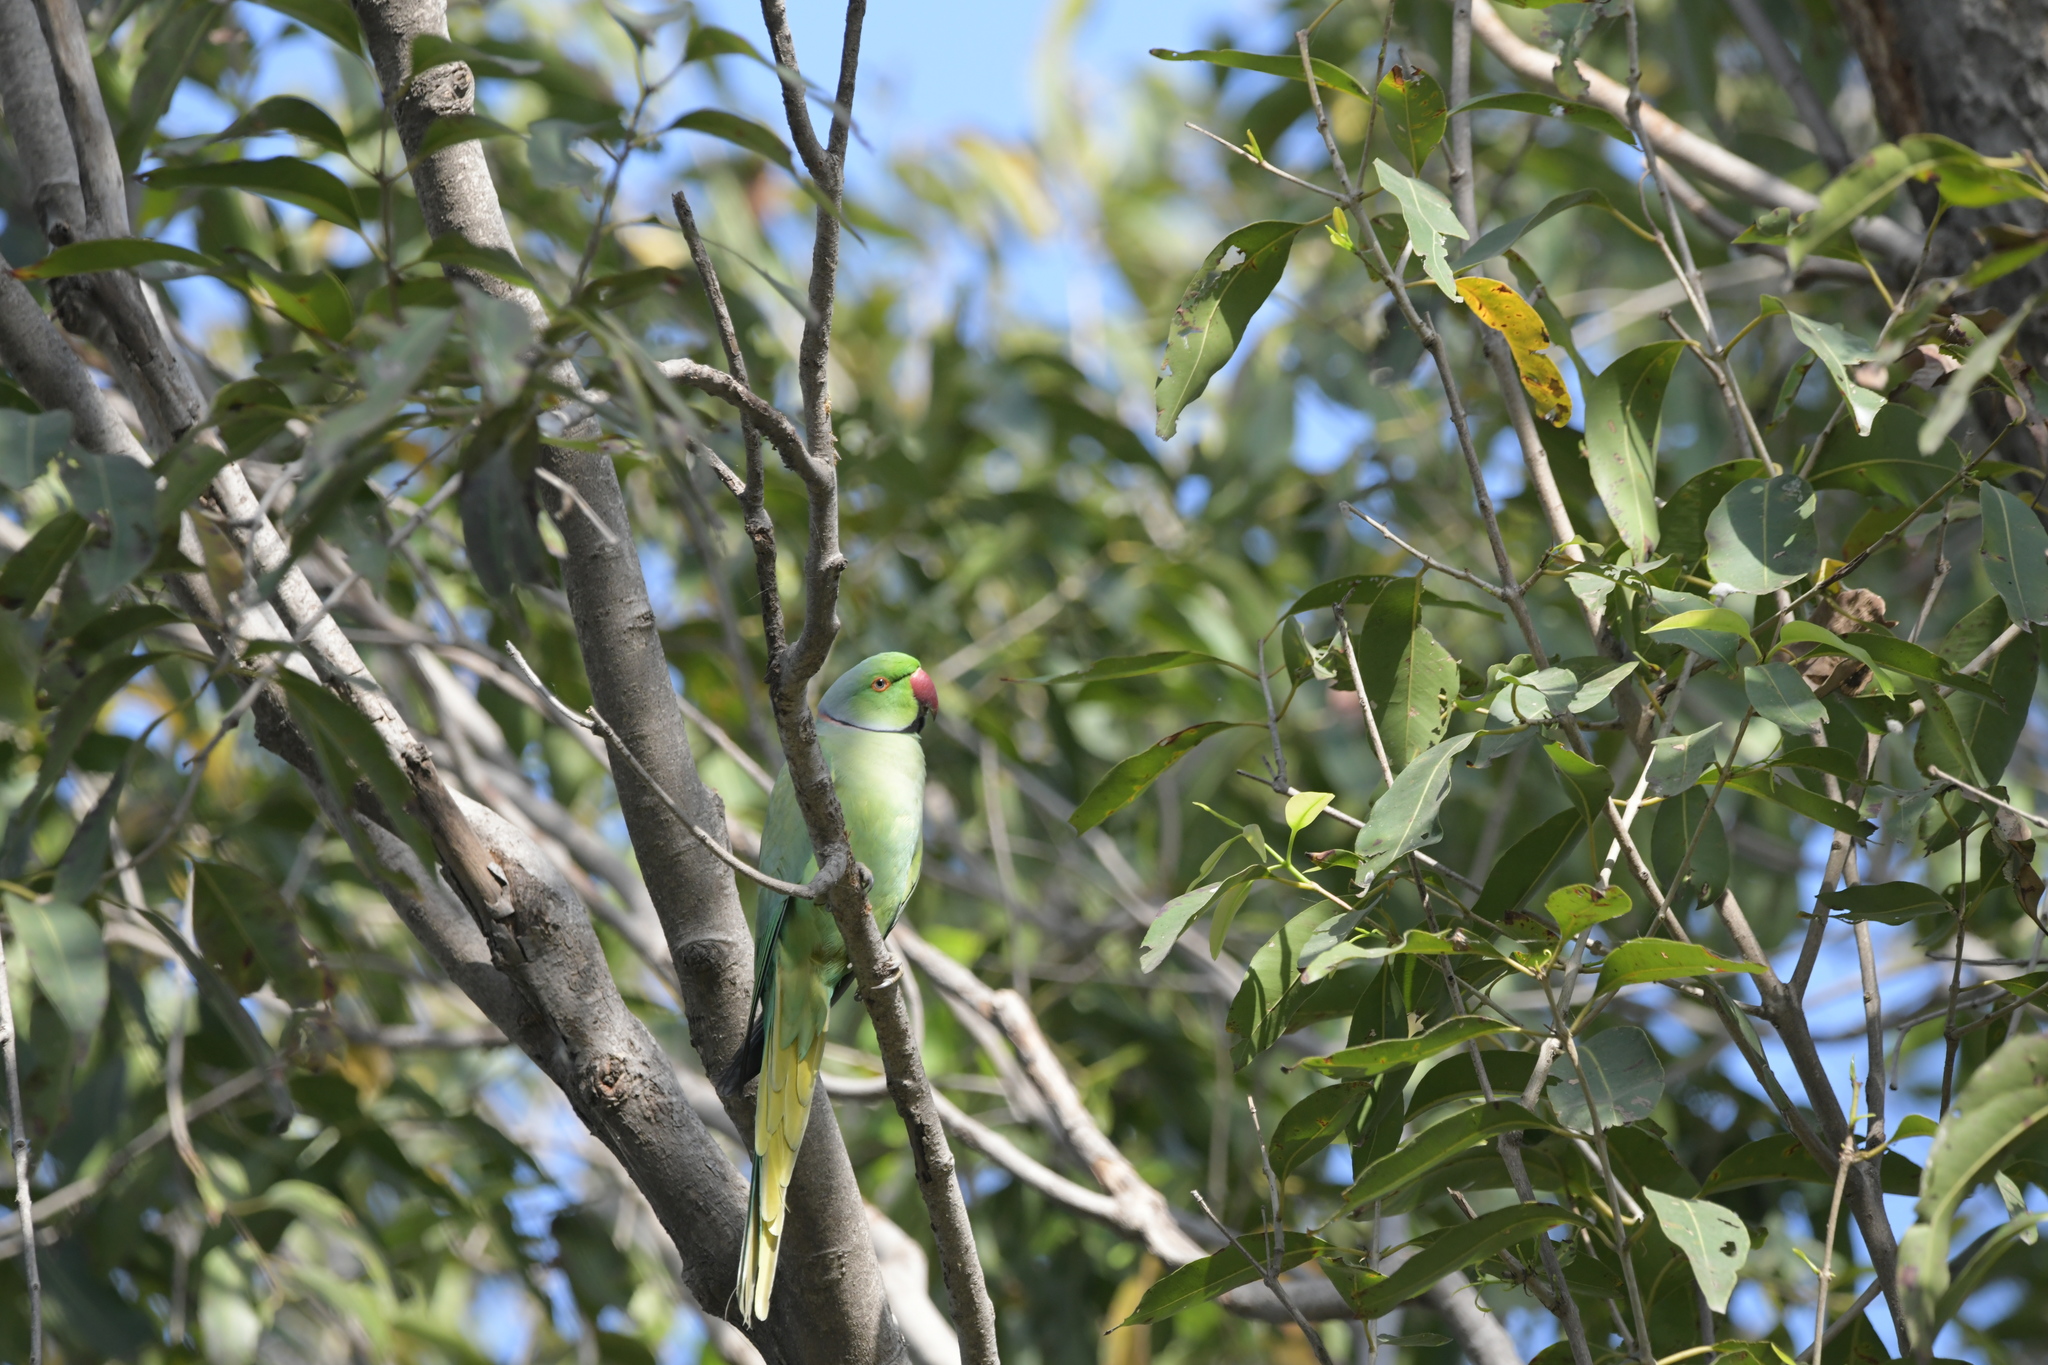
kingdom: Animalia
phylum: Chordata
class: Aves
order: Psittaciformes
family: Psittacidae
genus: Psittacula
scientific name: Psittacula krameri
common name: Rose-ringed parakeet
